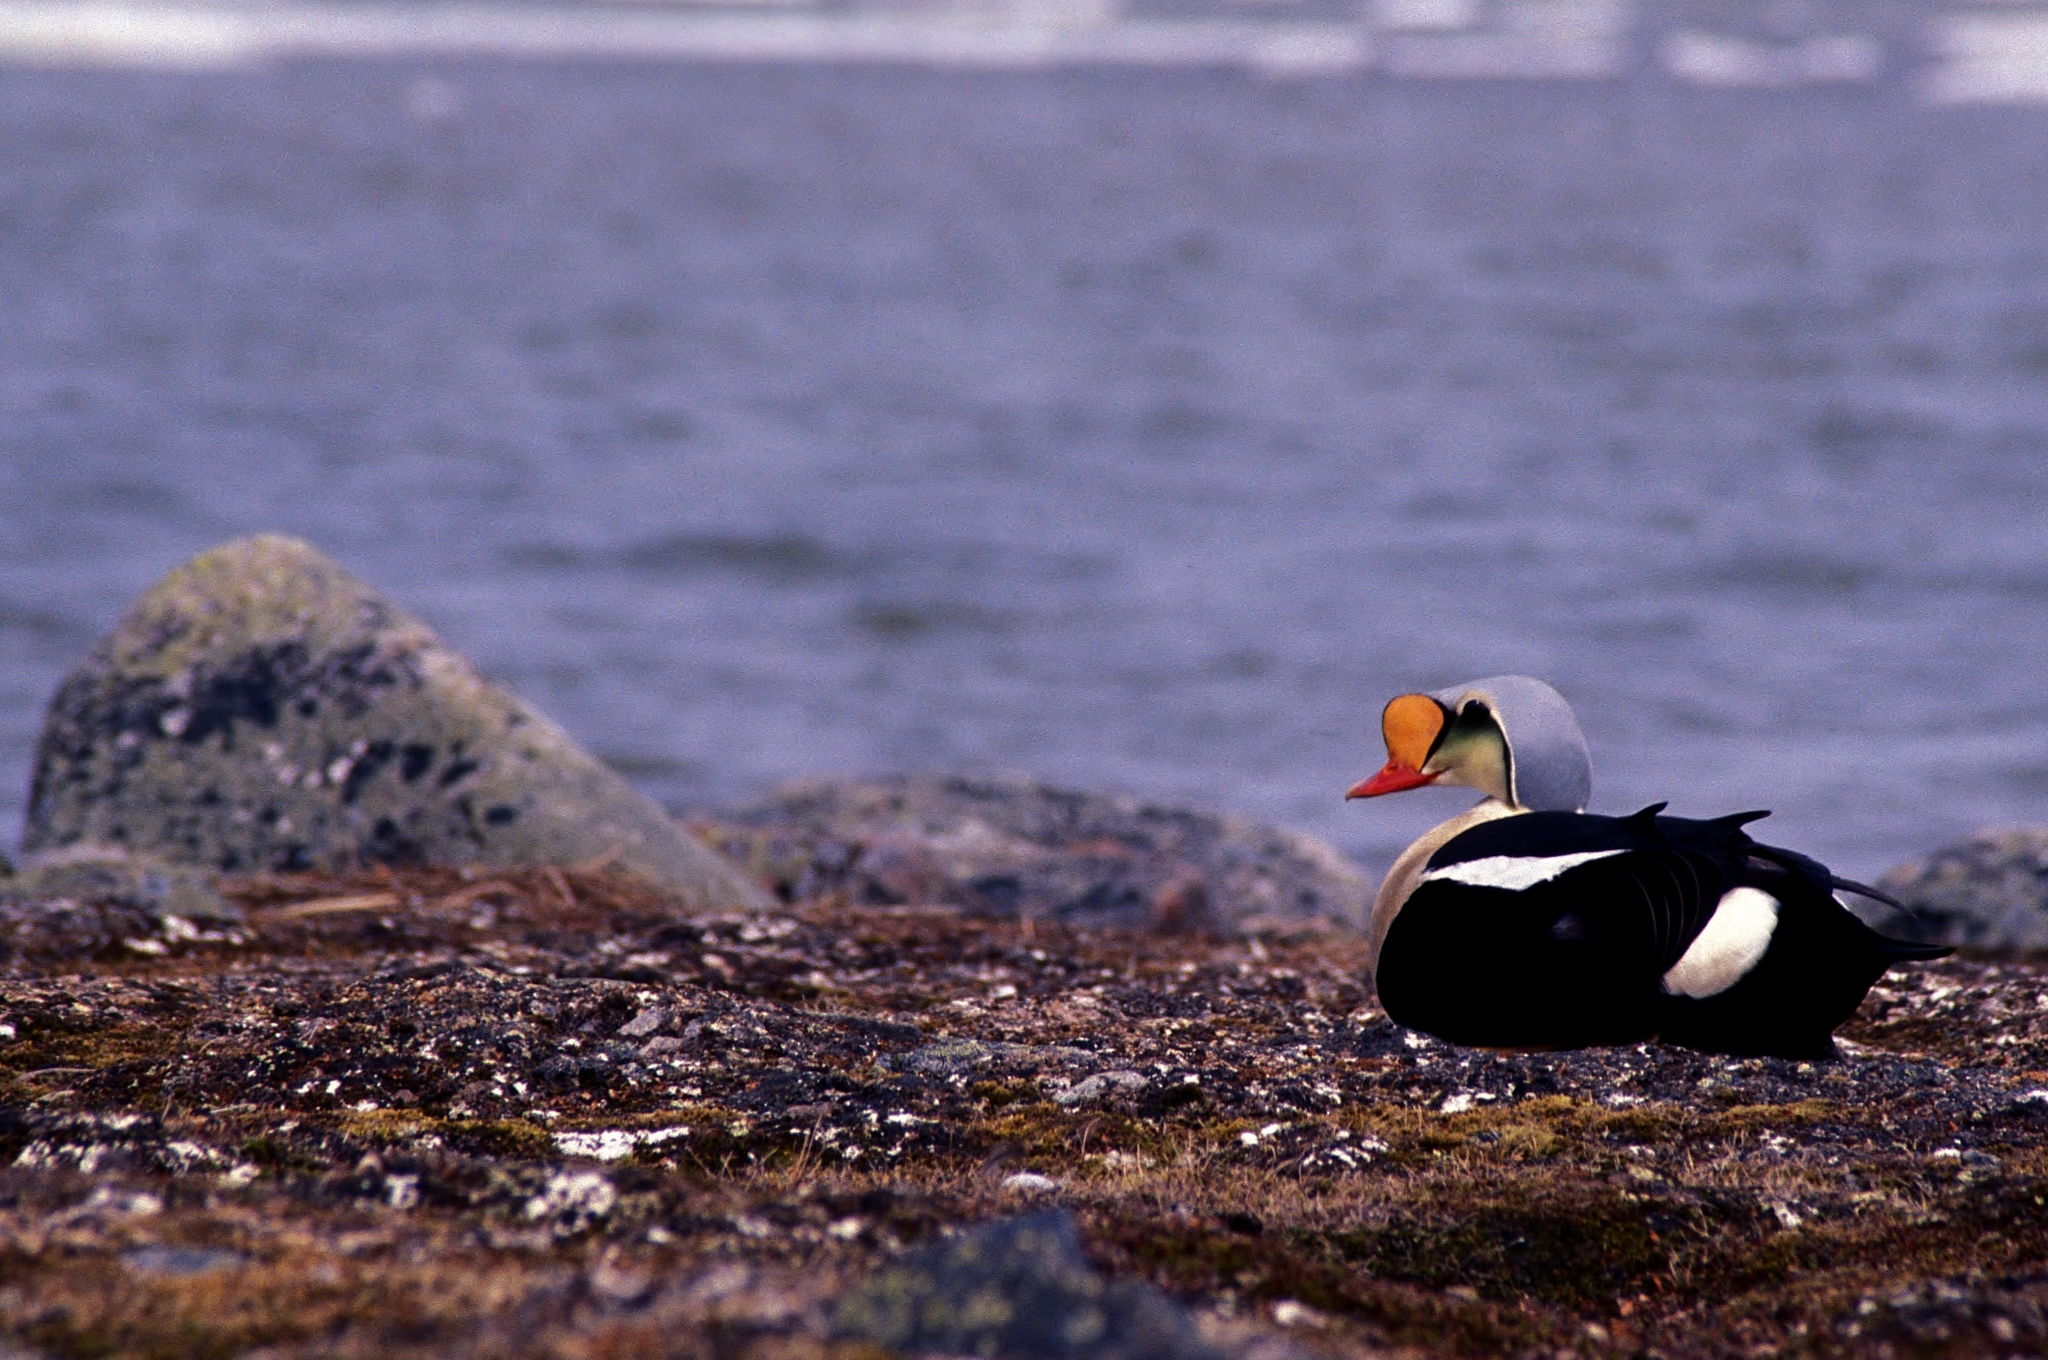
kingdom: Animalia
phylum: Chordata
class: Aves
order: Anseriformes
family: Anatidae
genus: Somateria
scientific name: Somateria spectabilis
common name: King eider
